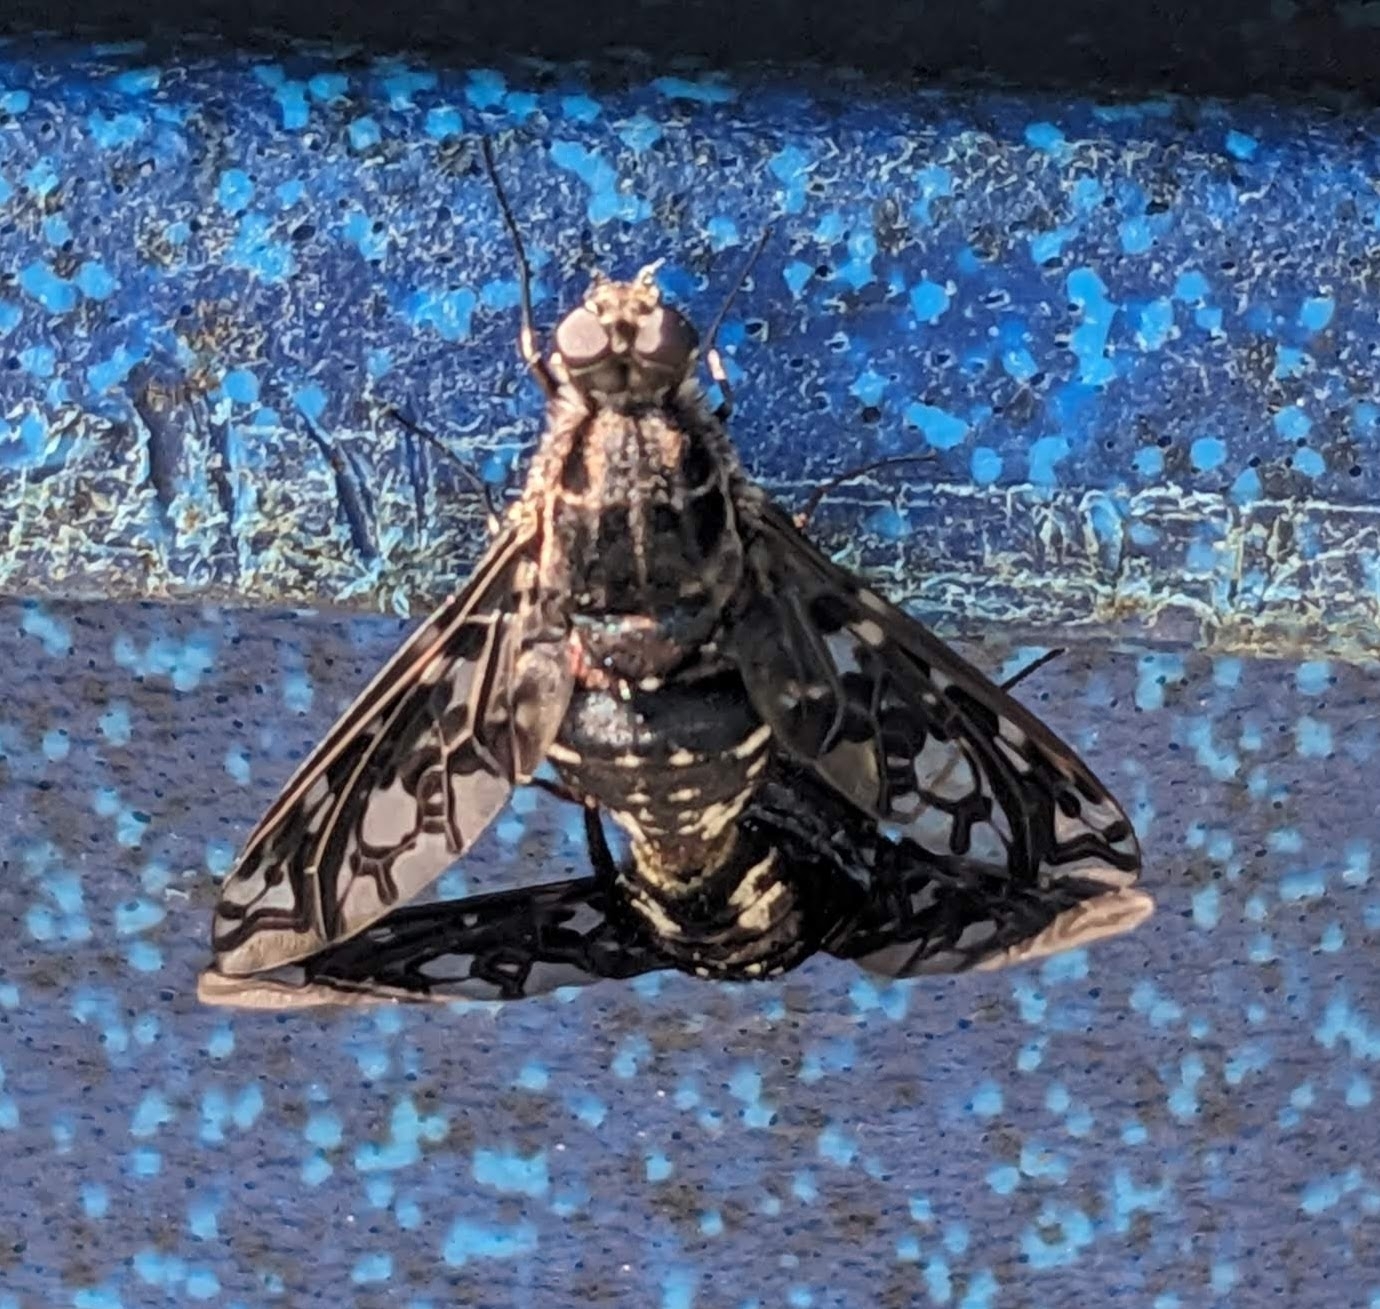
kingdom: Animalia
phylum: Arthropoda
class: Insecta
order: Diptera
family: Bombyliidae
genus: Xenox
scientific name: Xenox tigrinus
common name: Tiger bee fly
